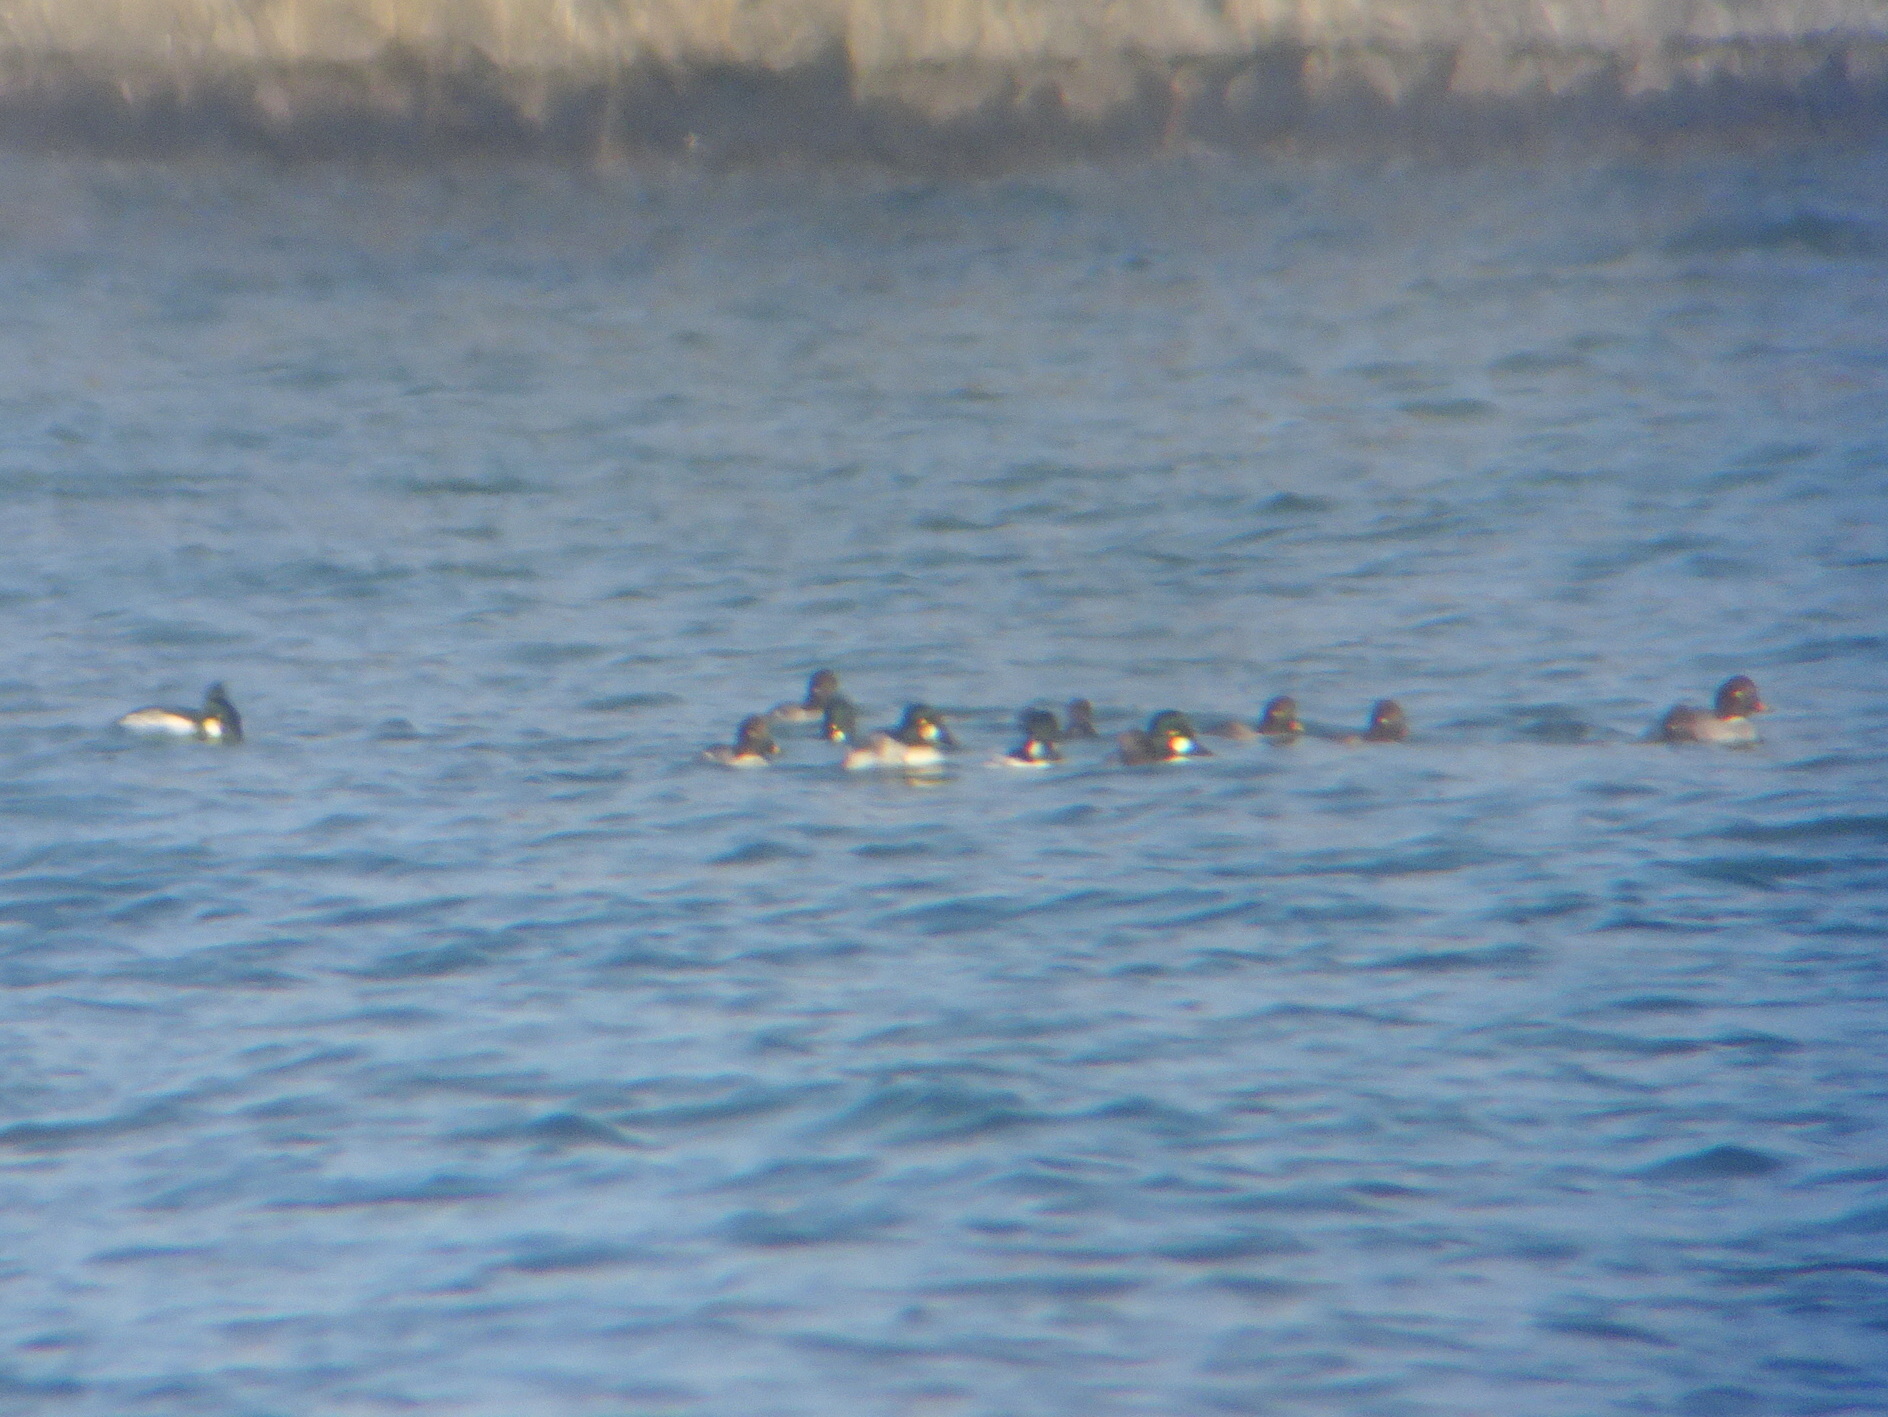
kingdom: Animalia
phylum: Chordata
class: Aves
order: Anseriformes
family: Anatidae
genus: Bucephala
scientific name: Bucephala clangula
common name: Common goldeneye
